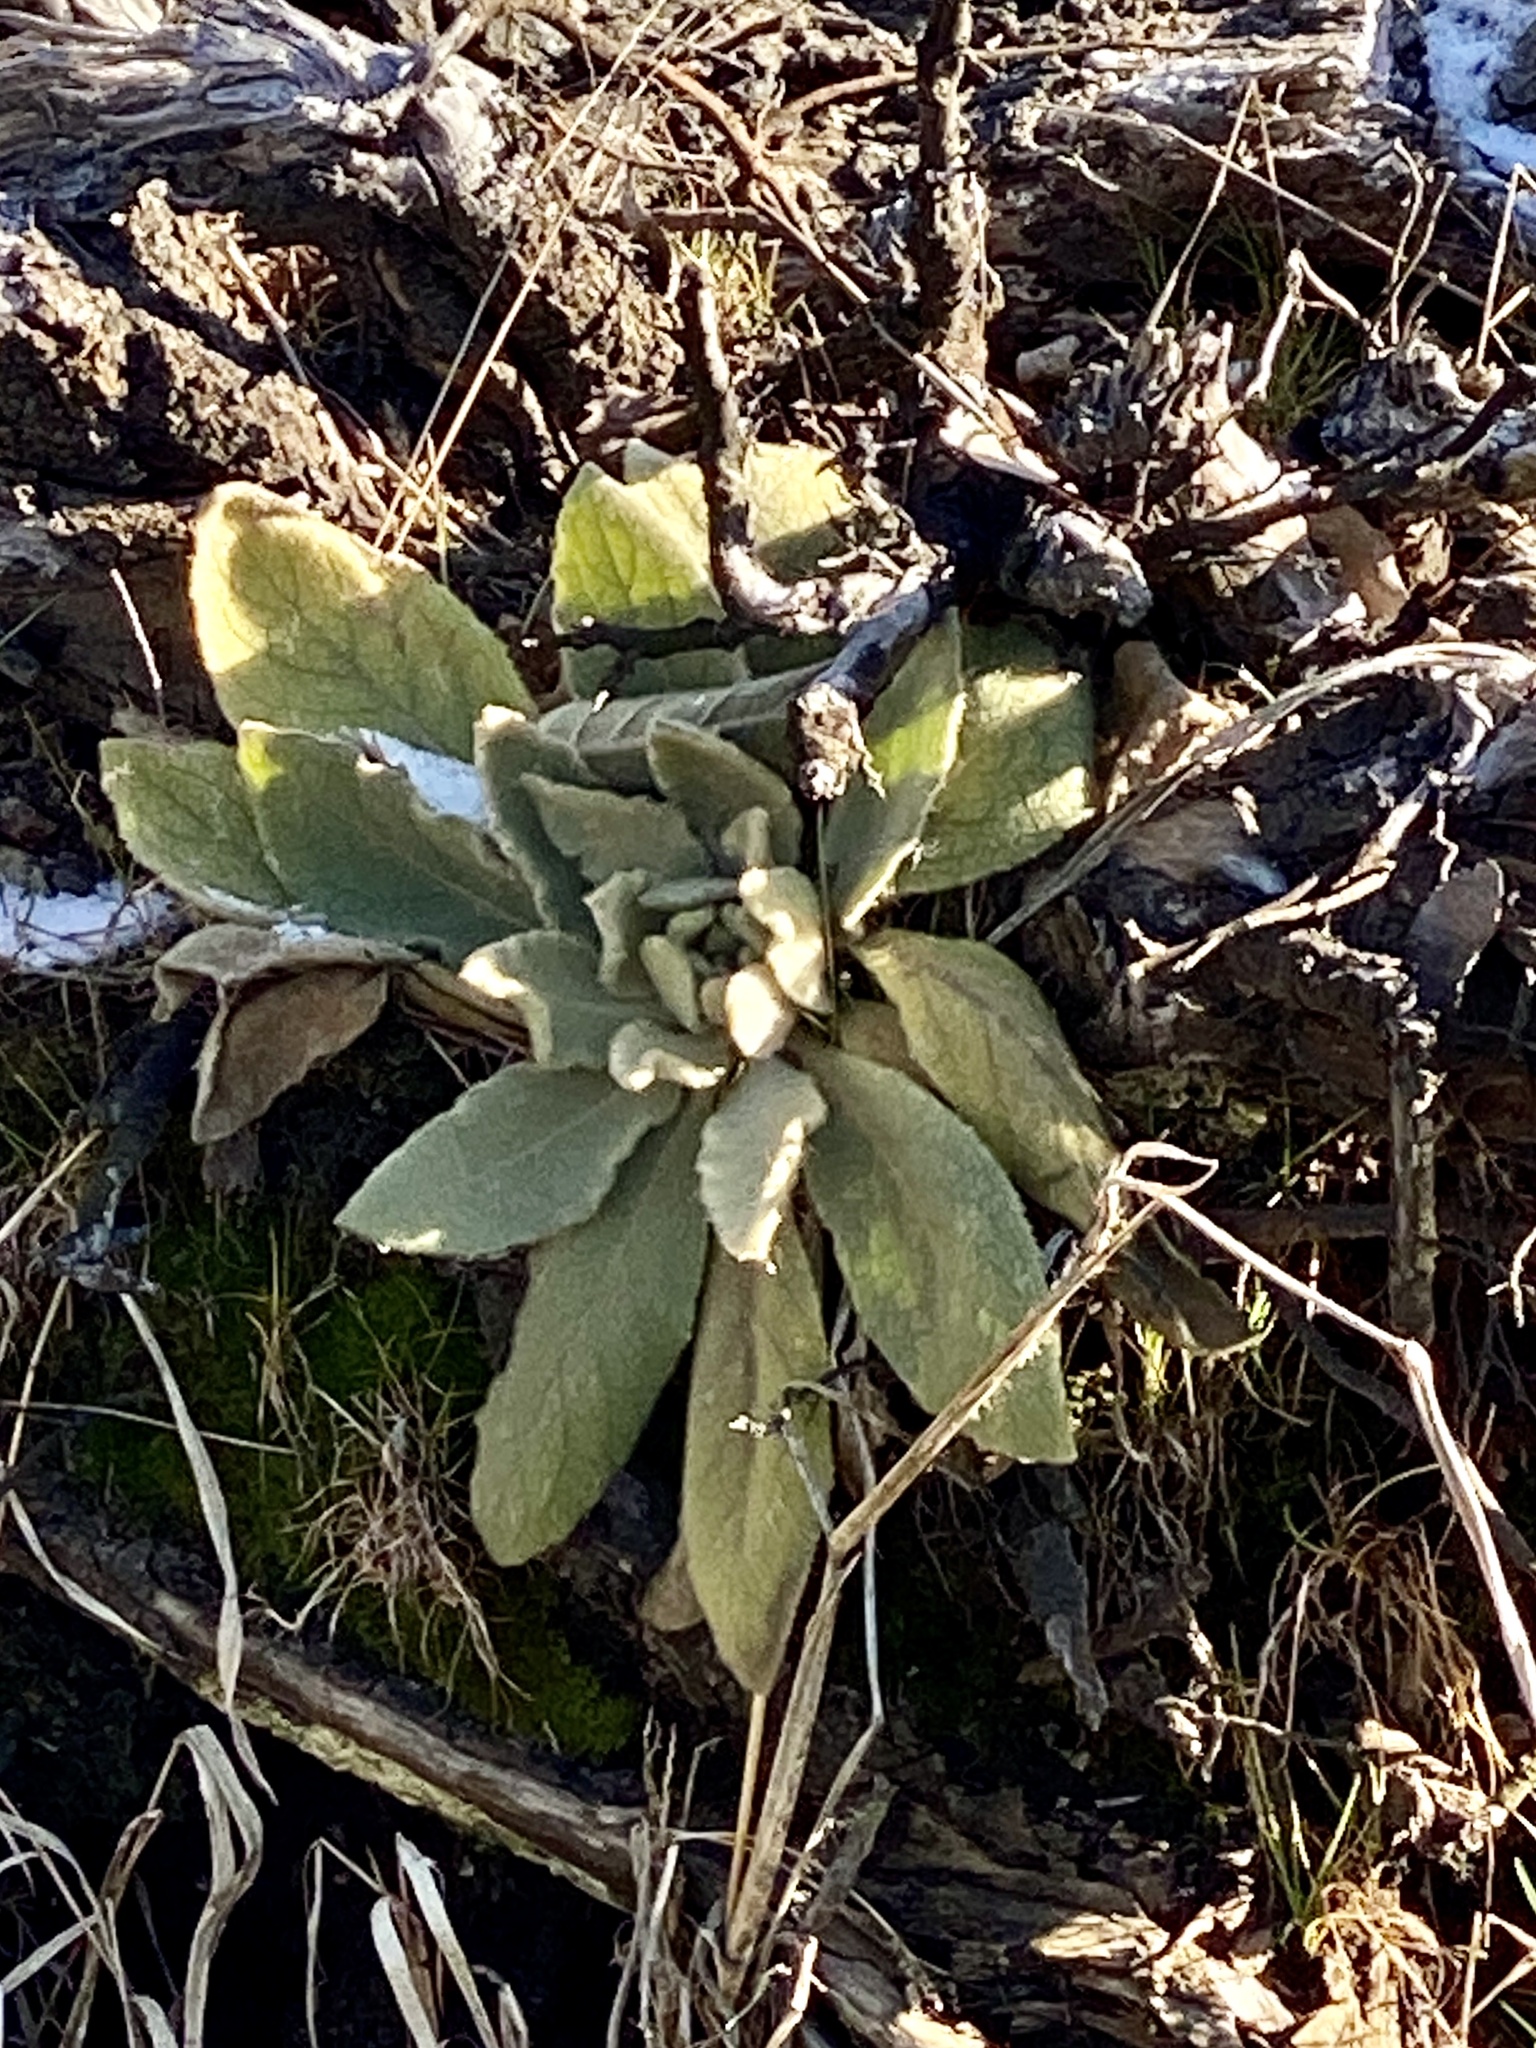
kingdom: Plantae
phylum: Tracheophyta
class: Magnoliopsida
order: Lamiales
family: Scrophulariaceae
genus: Verbascum
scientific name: Verbascum thapsus
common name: Common mullein
